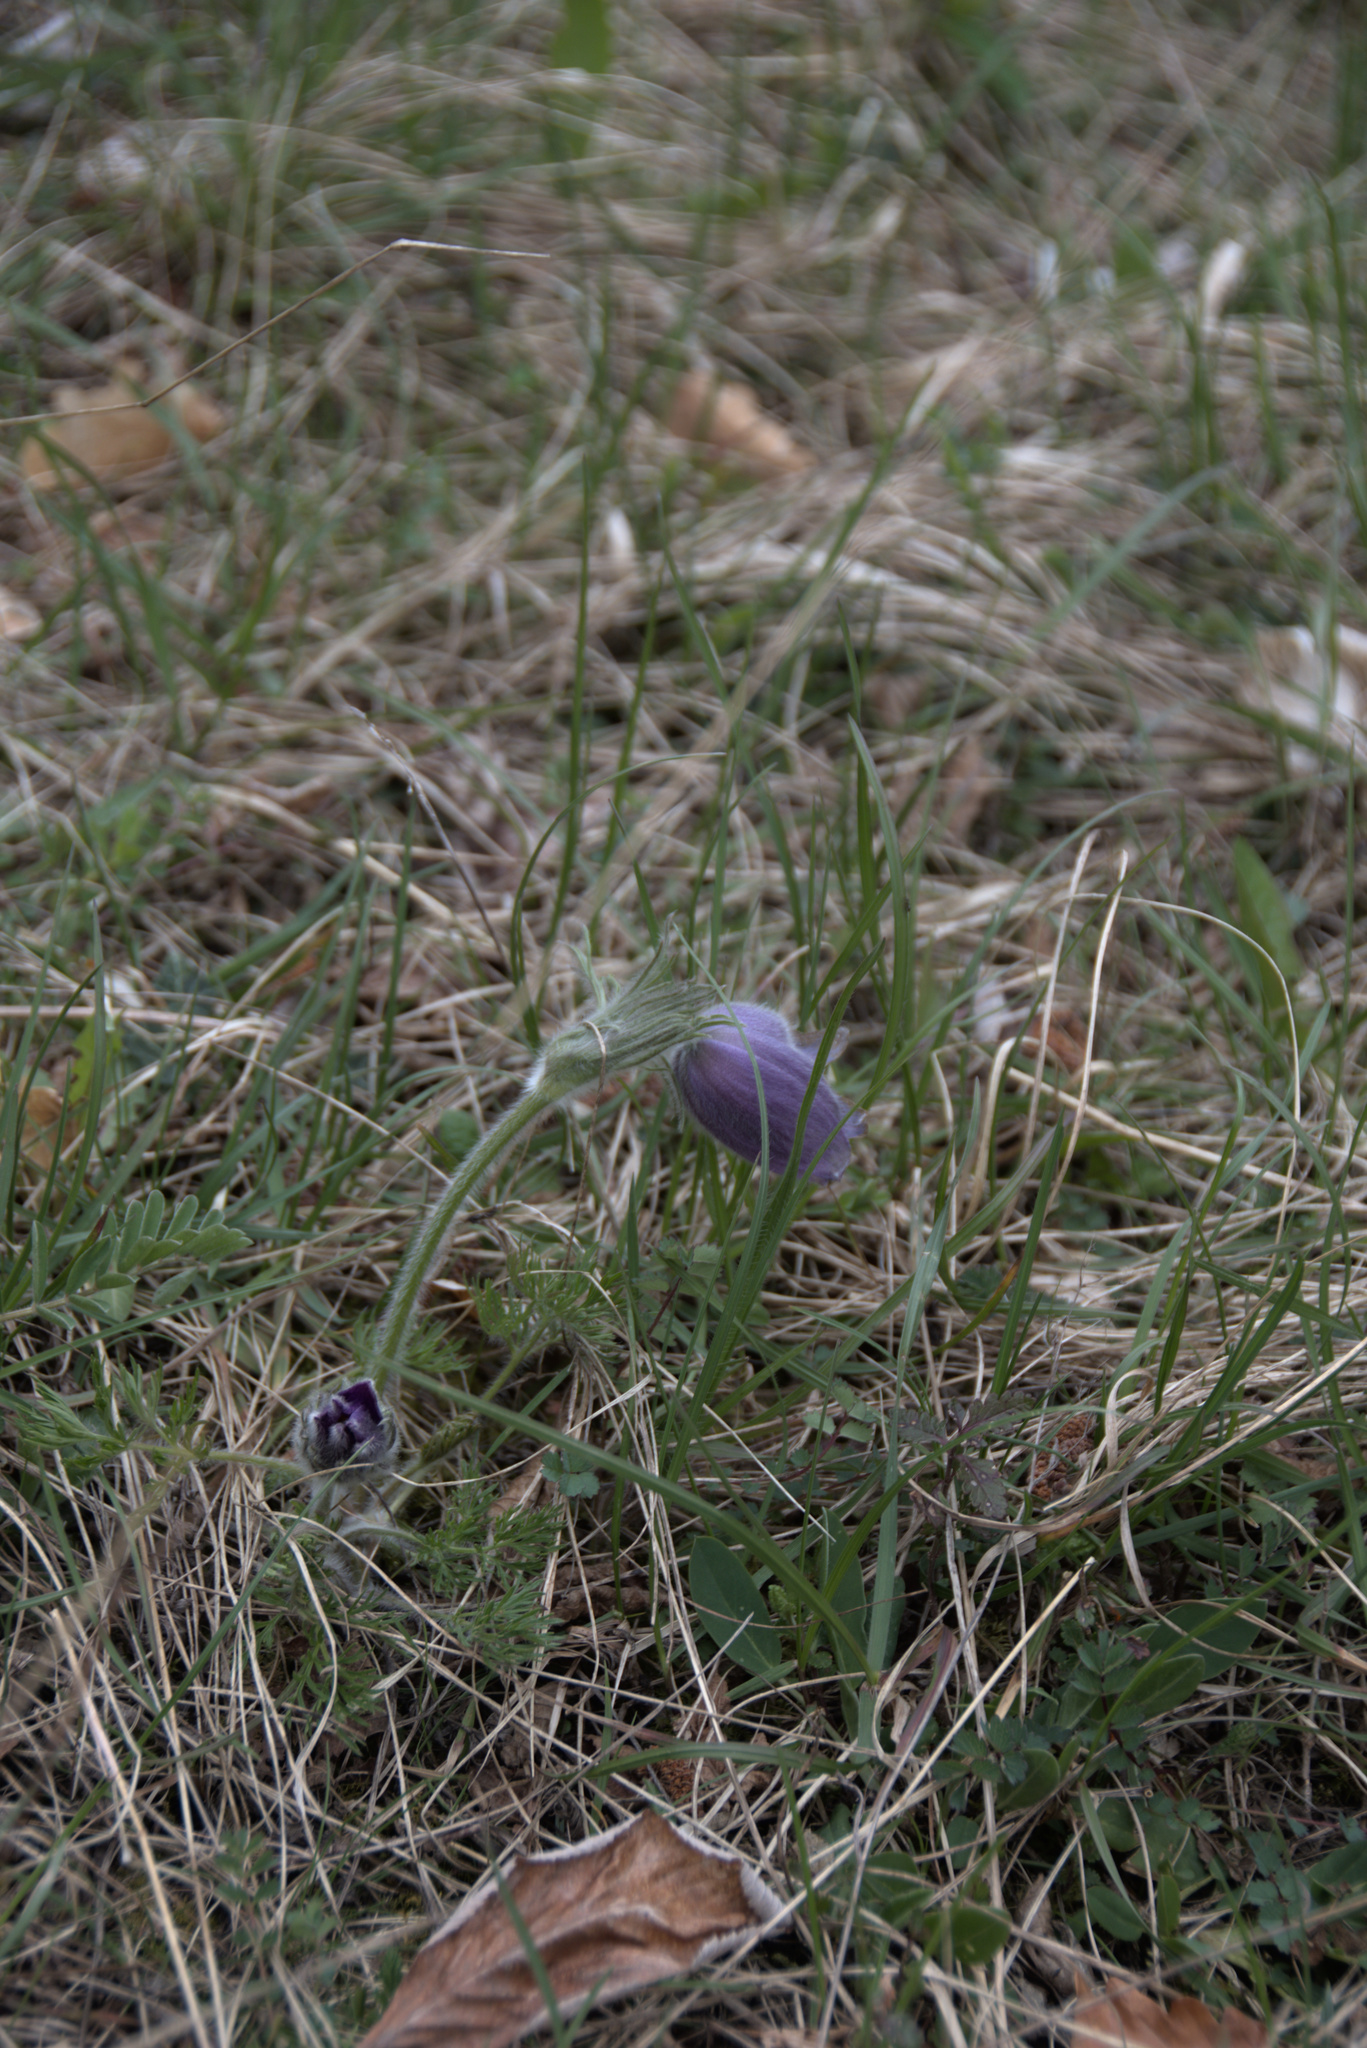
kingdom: Plantae
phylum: Tracheophyta
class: Magnoliopsida
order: Ranunculales
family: Ranunculaceae
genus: Pulsatilla
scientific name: Pulsatilla vulgaris
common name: Pasqueflower
